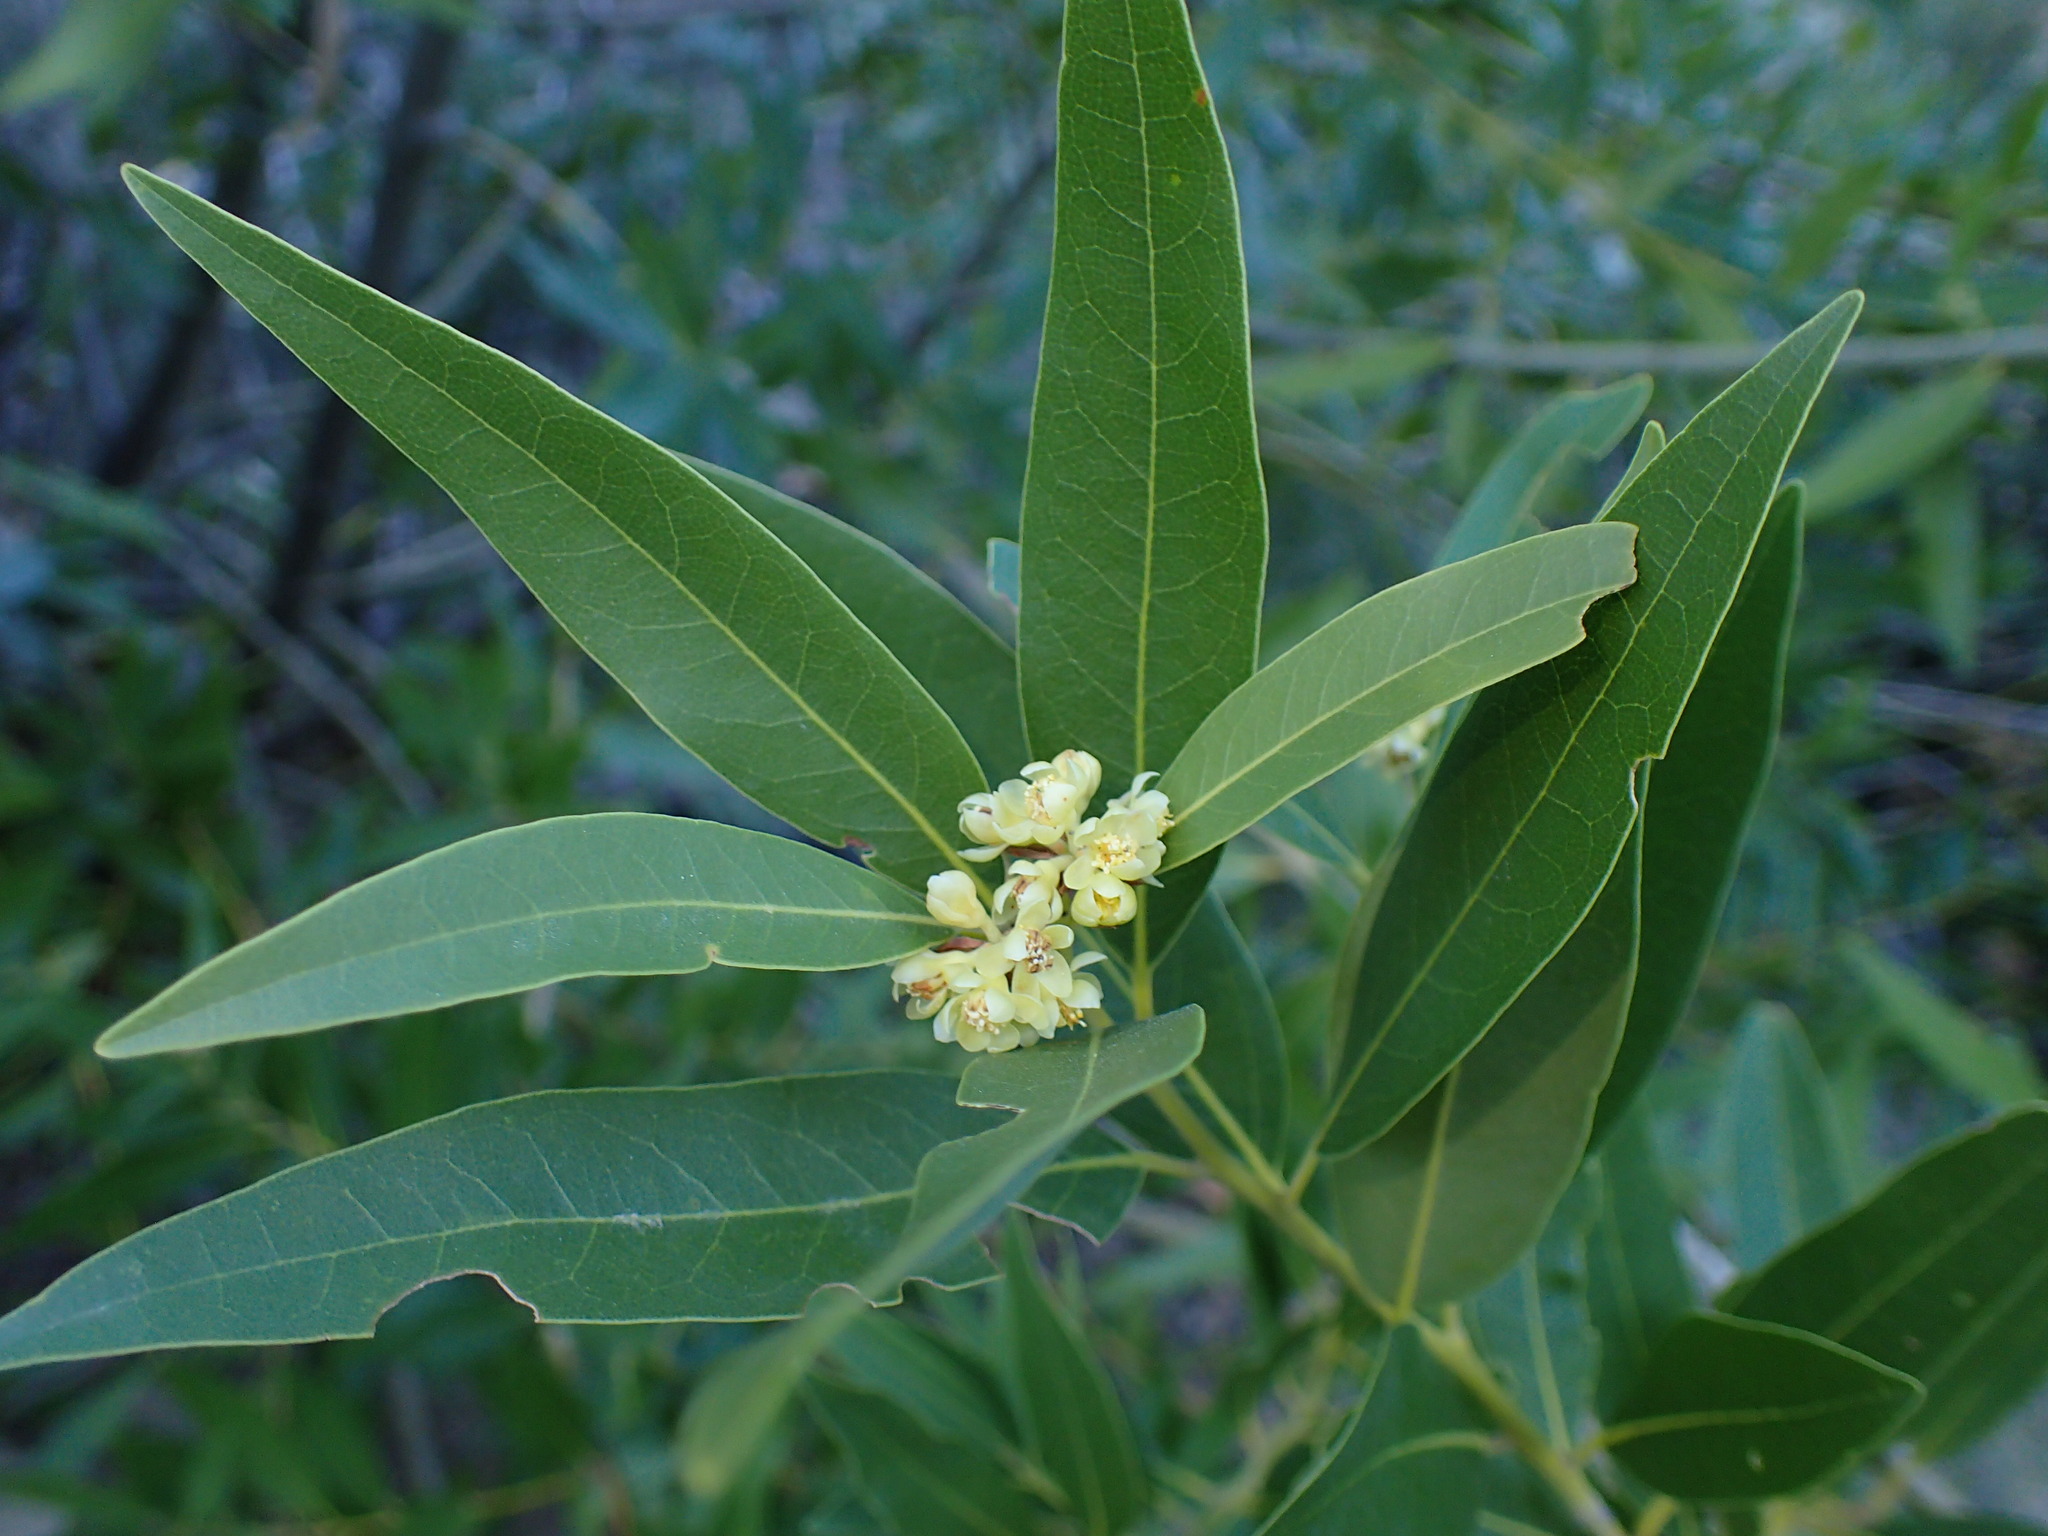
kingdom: Plantae
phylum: Tracheophyta
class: Magnoliopsida
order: Laurales
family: Lauraceae
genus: Umbellularia
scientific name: Umbellularia californica
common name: California bay
